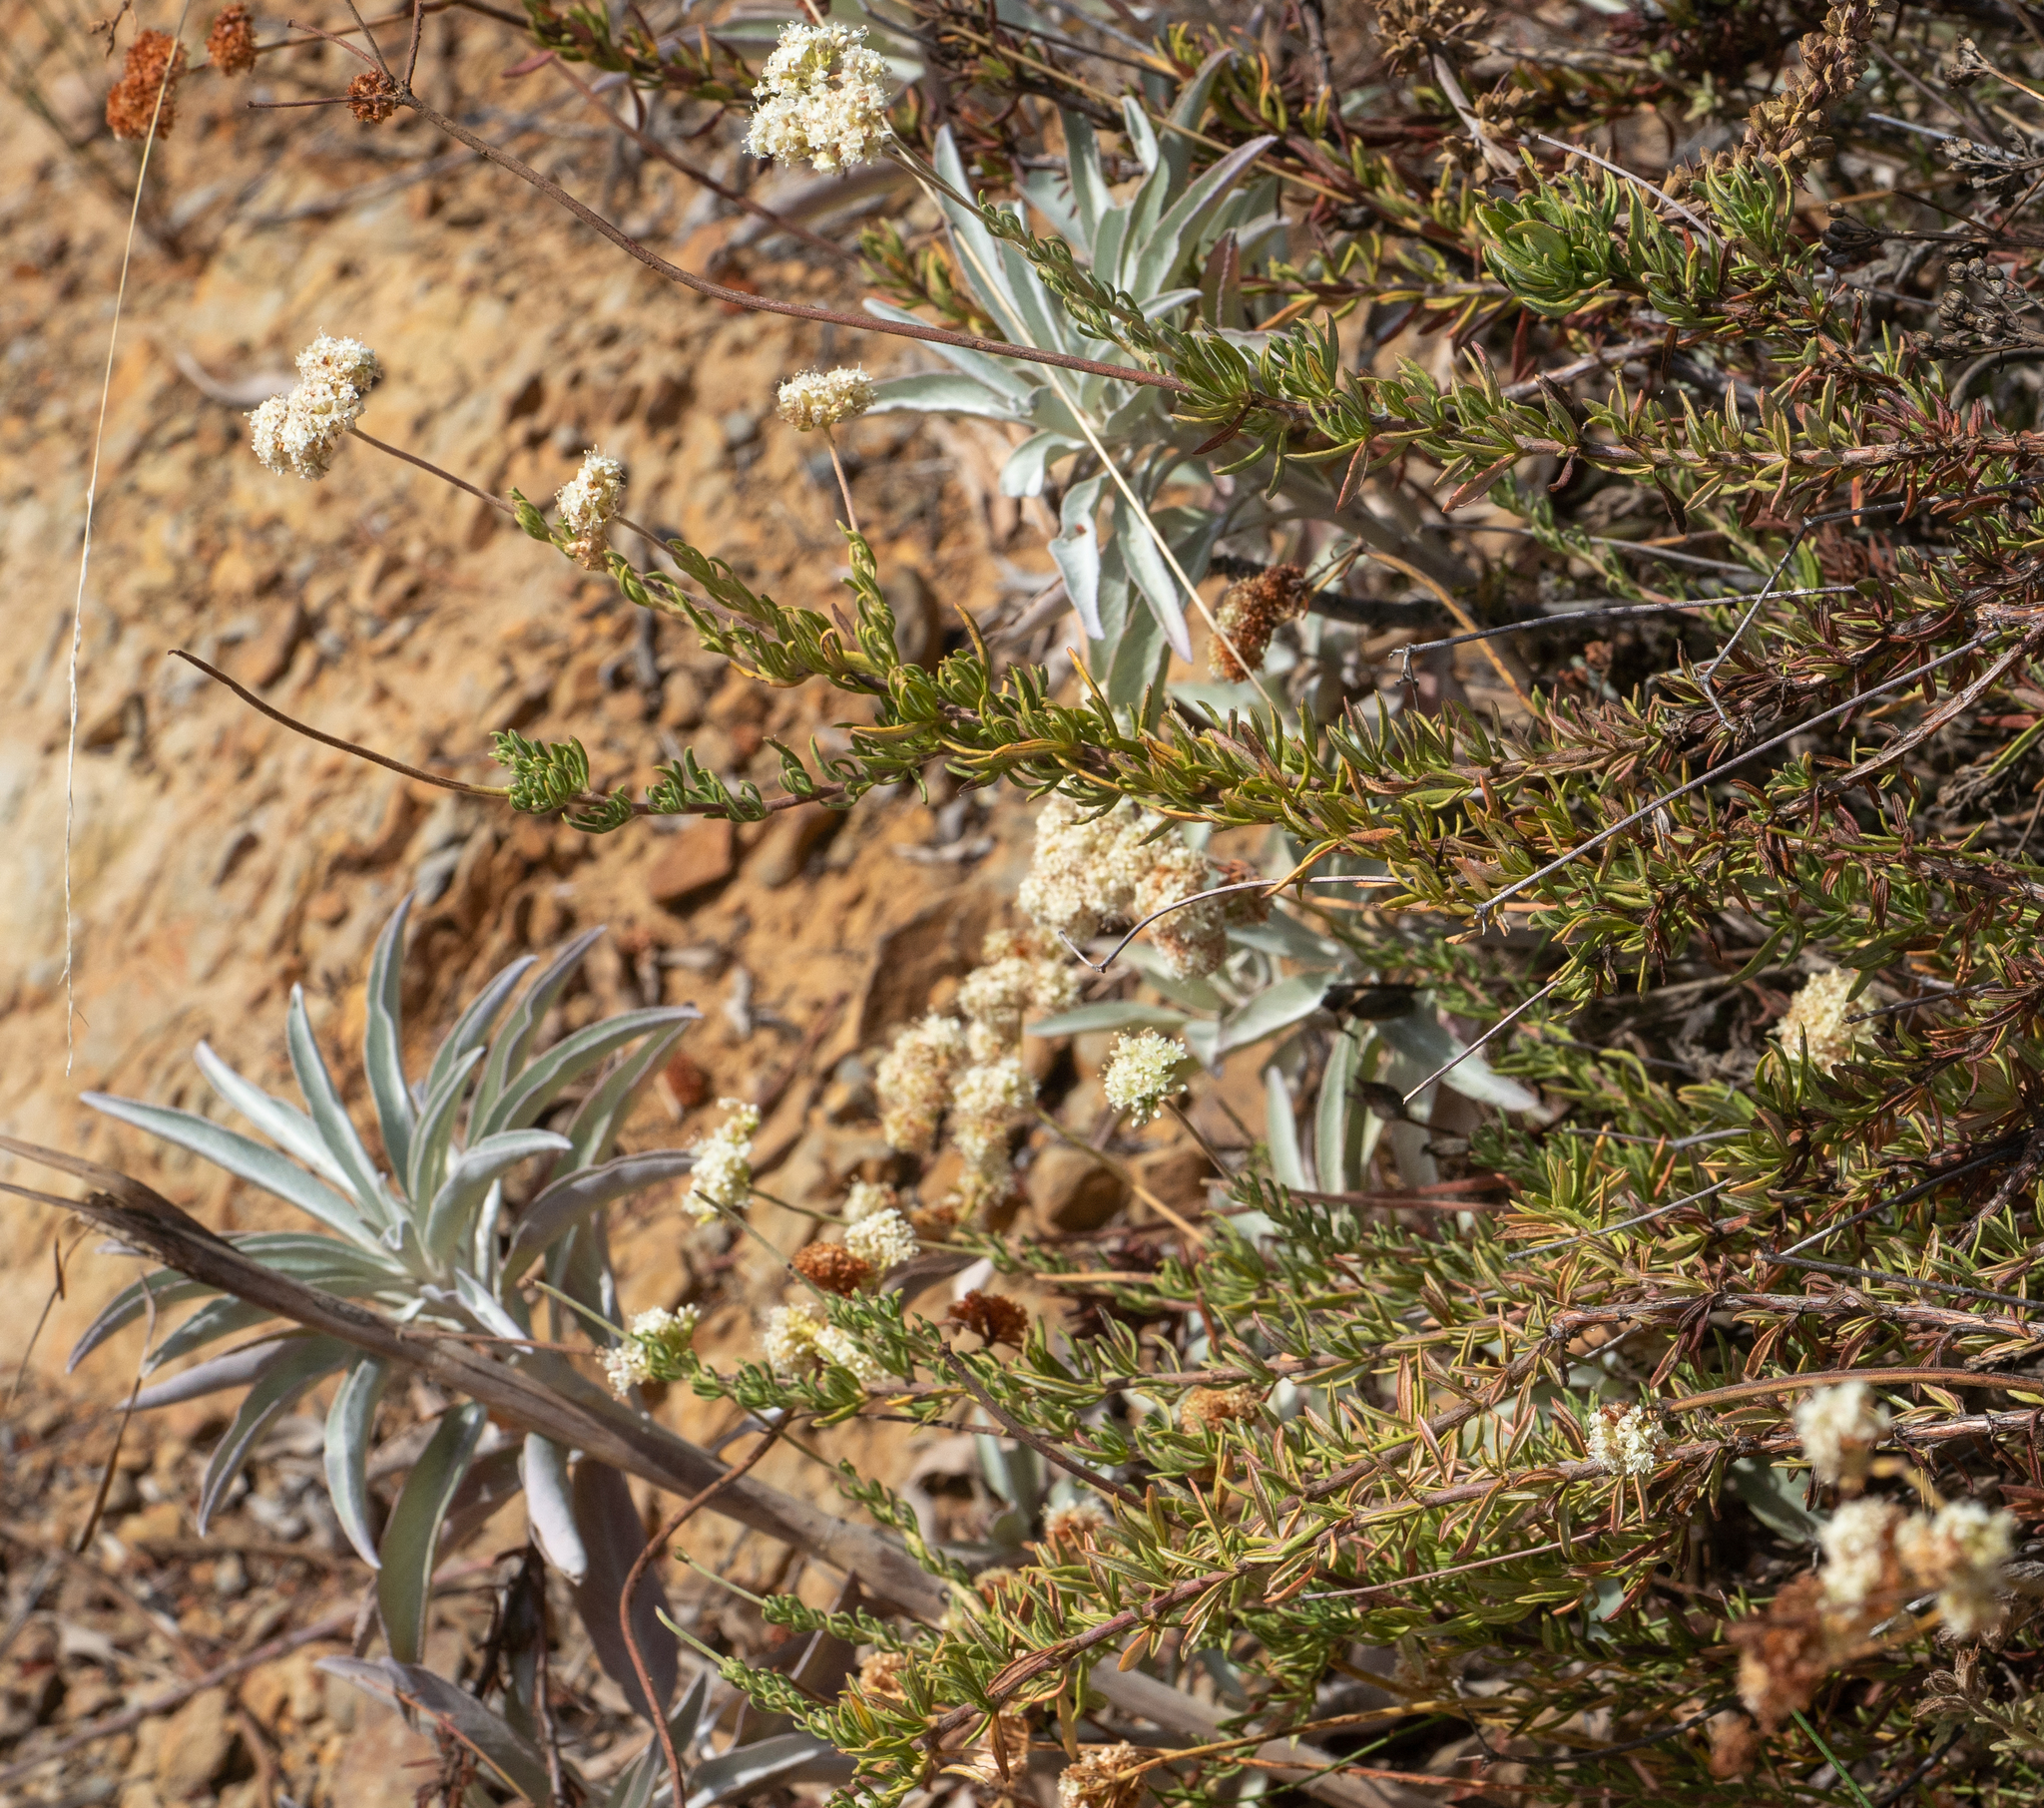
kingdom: Plantae
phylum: Tracheophyta
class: Magnoliopsida
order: Caryophyllales
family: Polygonaceae
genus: Eriogonum
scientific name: Eriogonum fasciculatum
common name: California wild buckwheat
